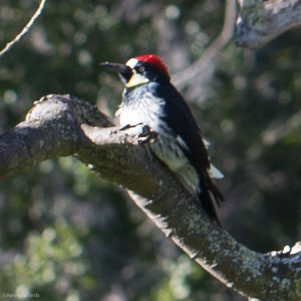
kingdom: Animalia
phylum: Chordata
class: Aves
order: Piciformes
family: Picidae
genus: Melanerpes
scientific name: Melanerpes formicivorus
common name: Acorn woodpecker
